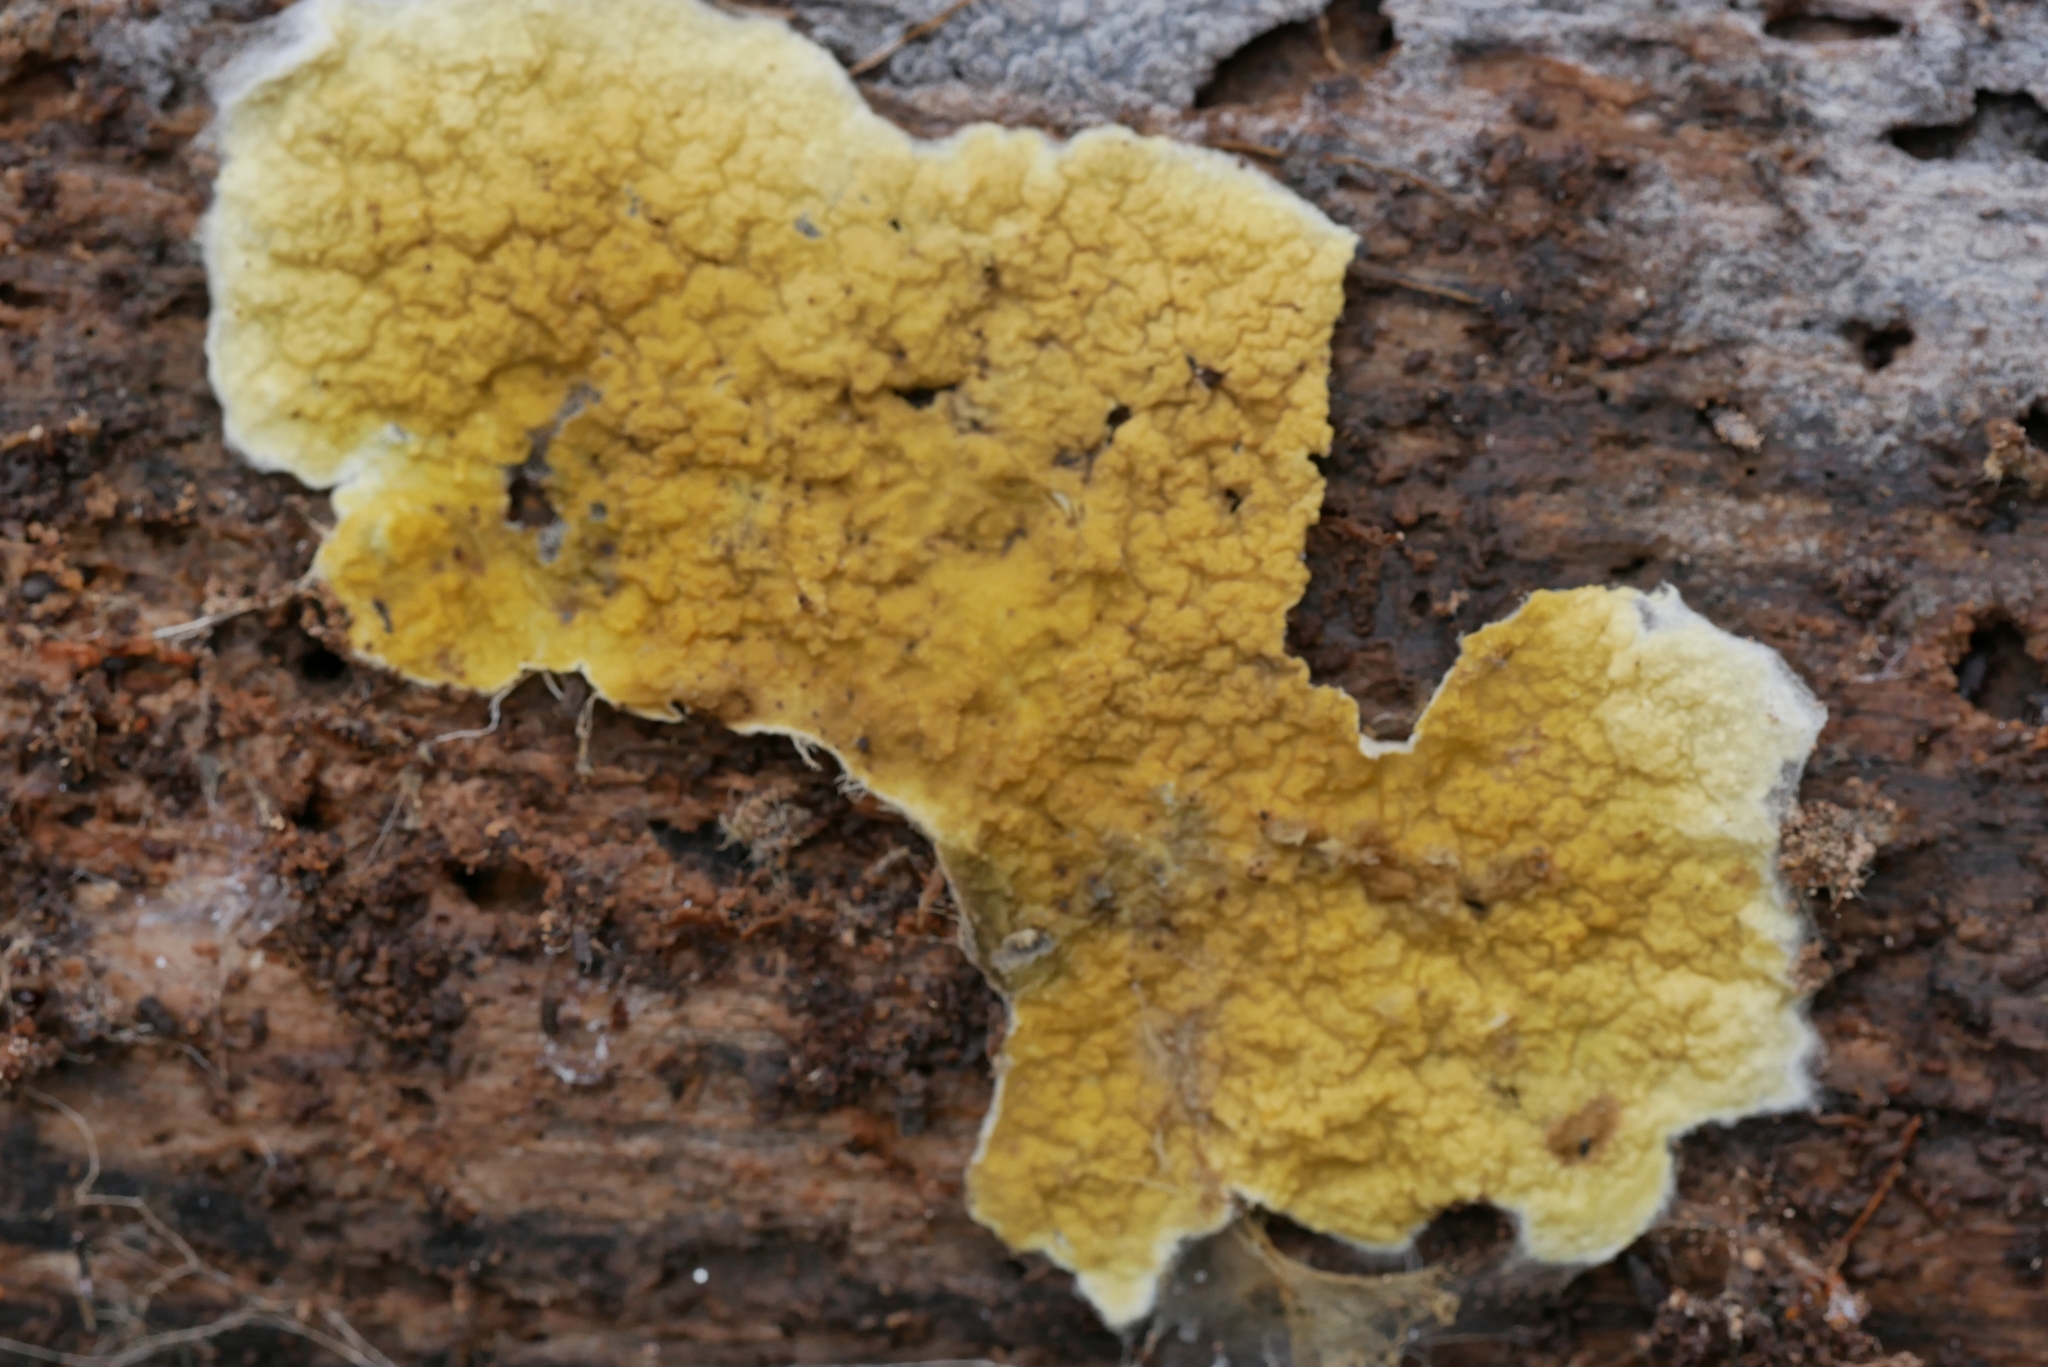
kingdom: Fungi
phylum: Basidiomycota
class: Agaricomycetes
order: Boletales
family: Coniophoraceae
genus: Penttilamyces
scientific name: Penttilamyces olivascens
